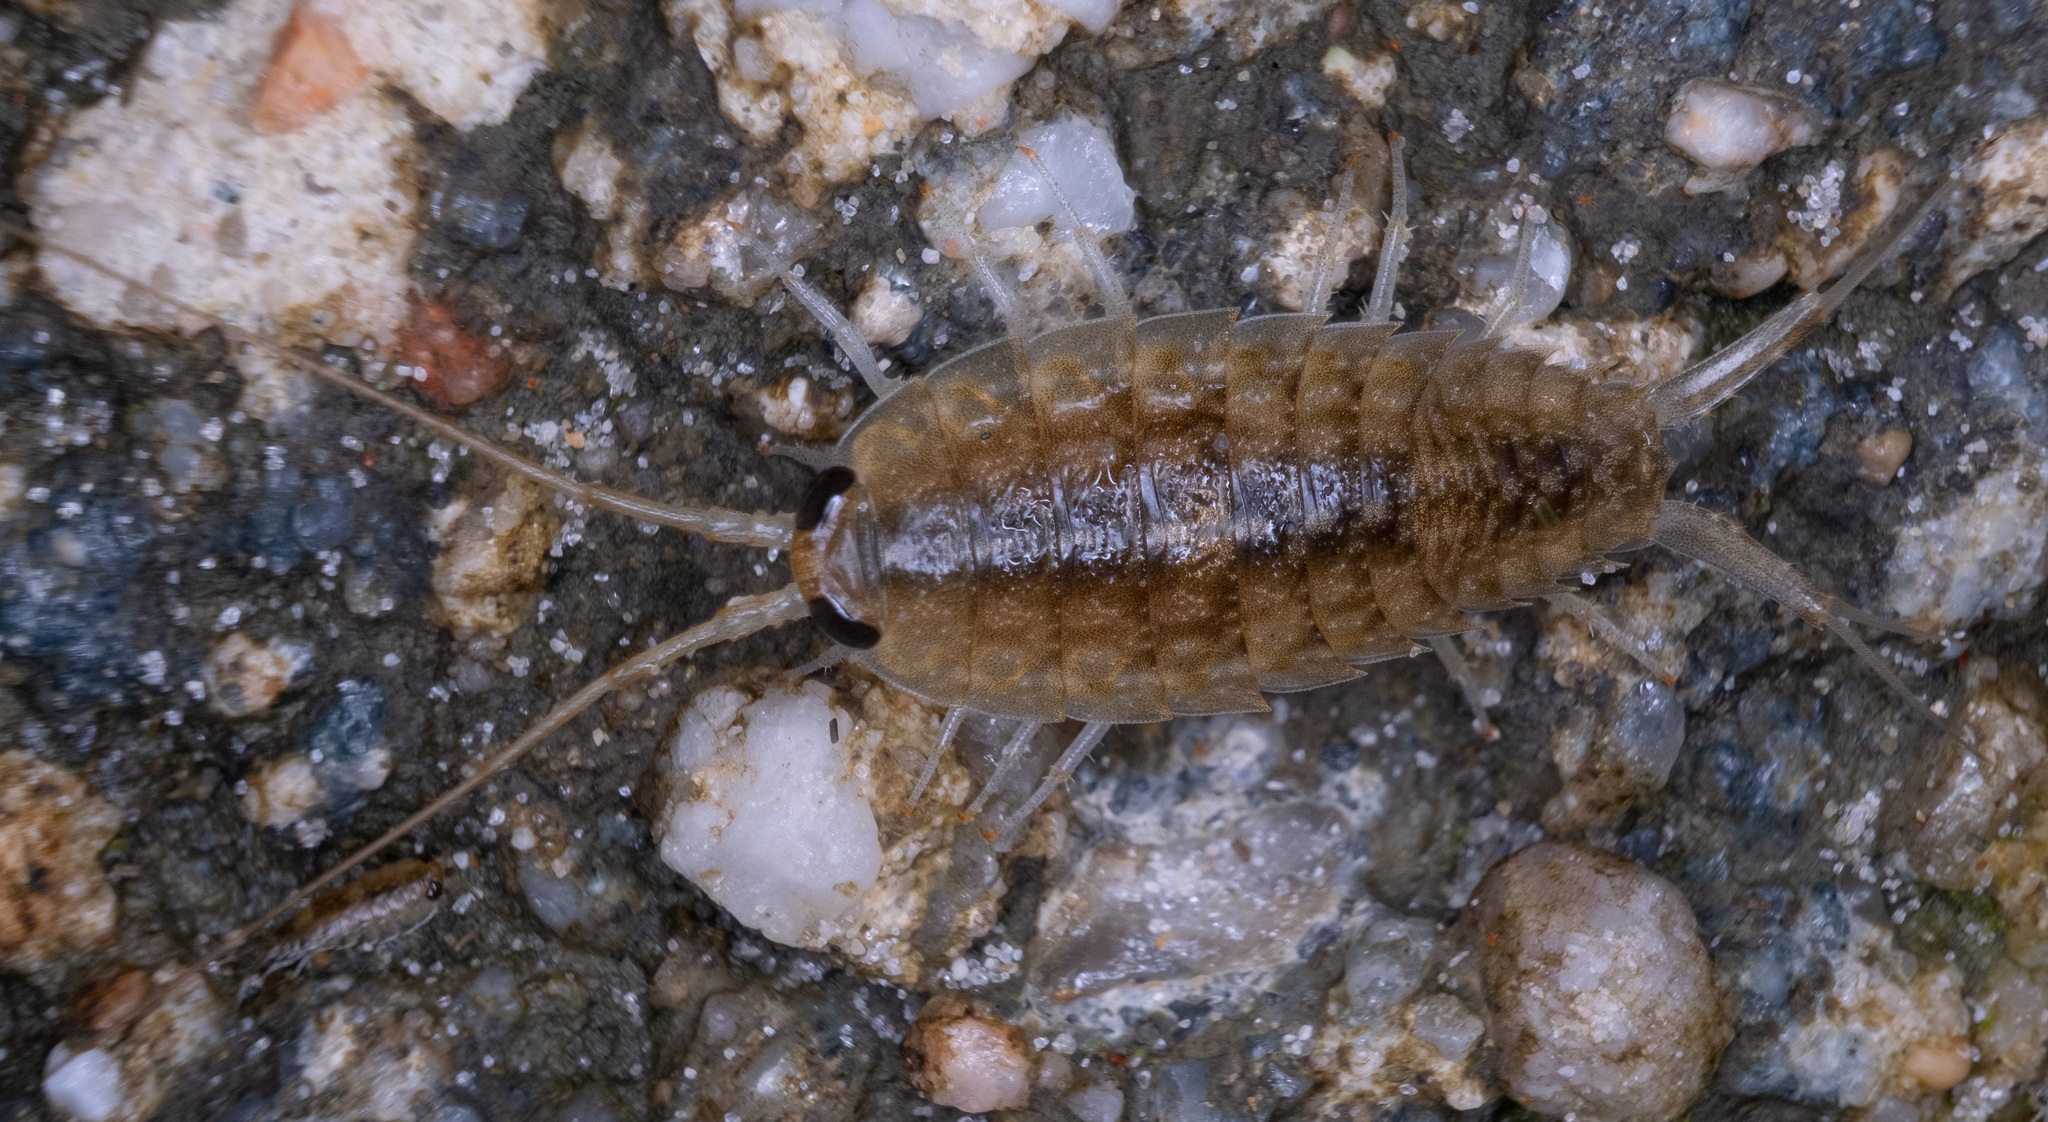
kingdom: Animalia
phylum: Arthropoda
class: Malacostraca
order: Isopoda
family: Ligiidae
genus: Ligia
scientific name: Ligia exotica
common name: Wharf roach
